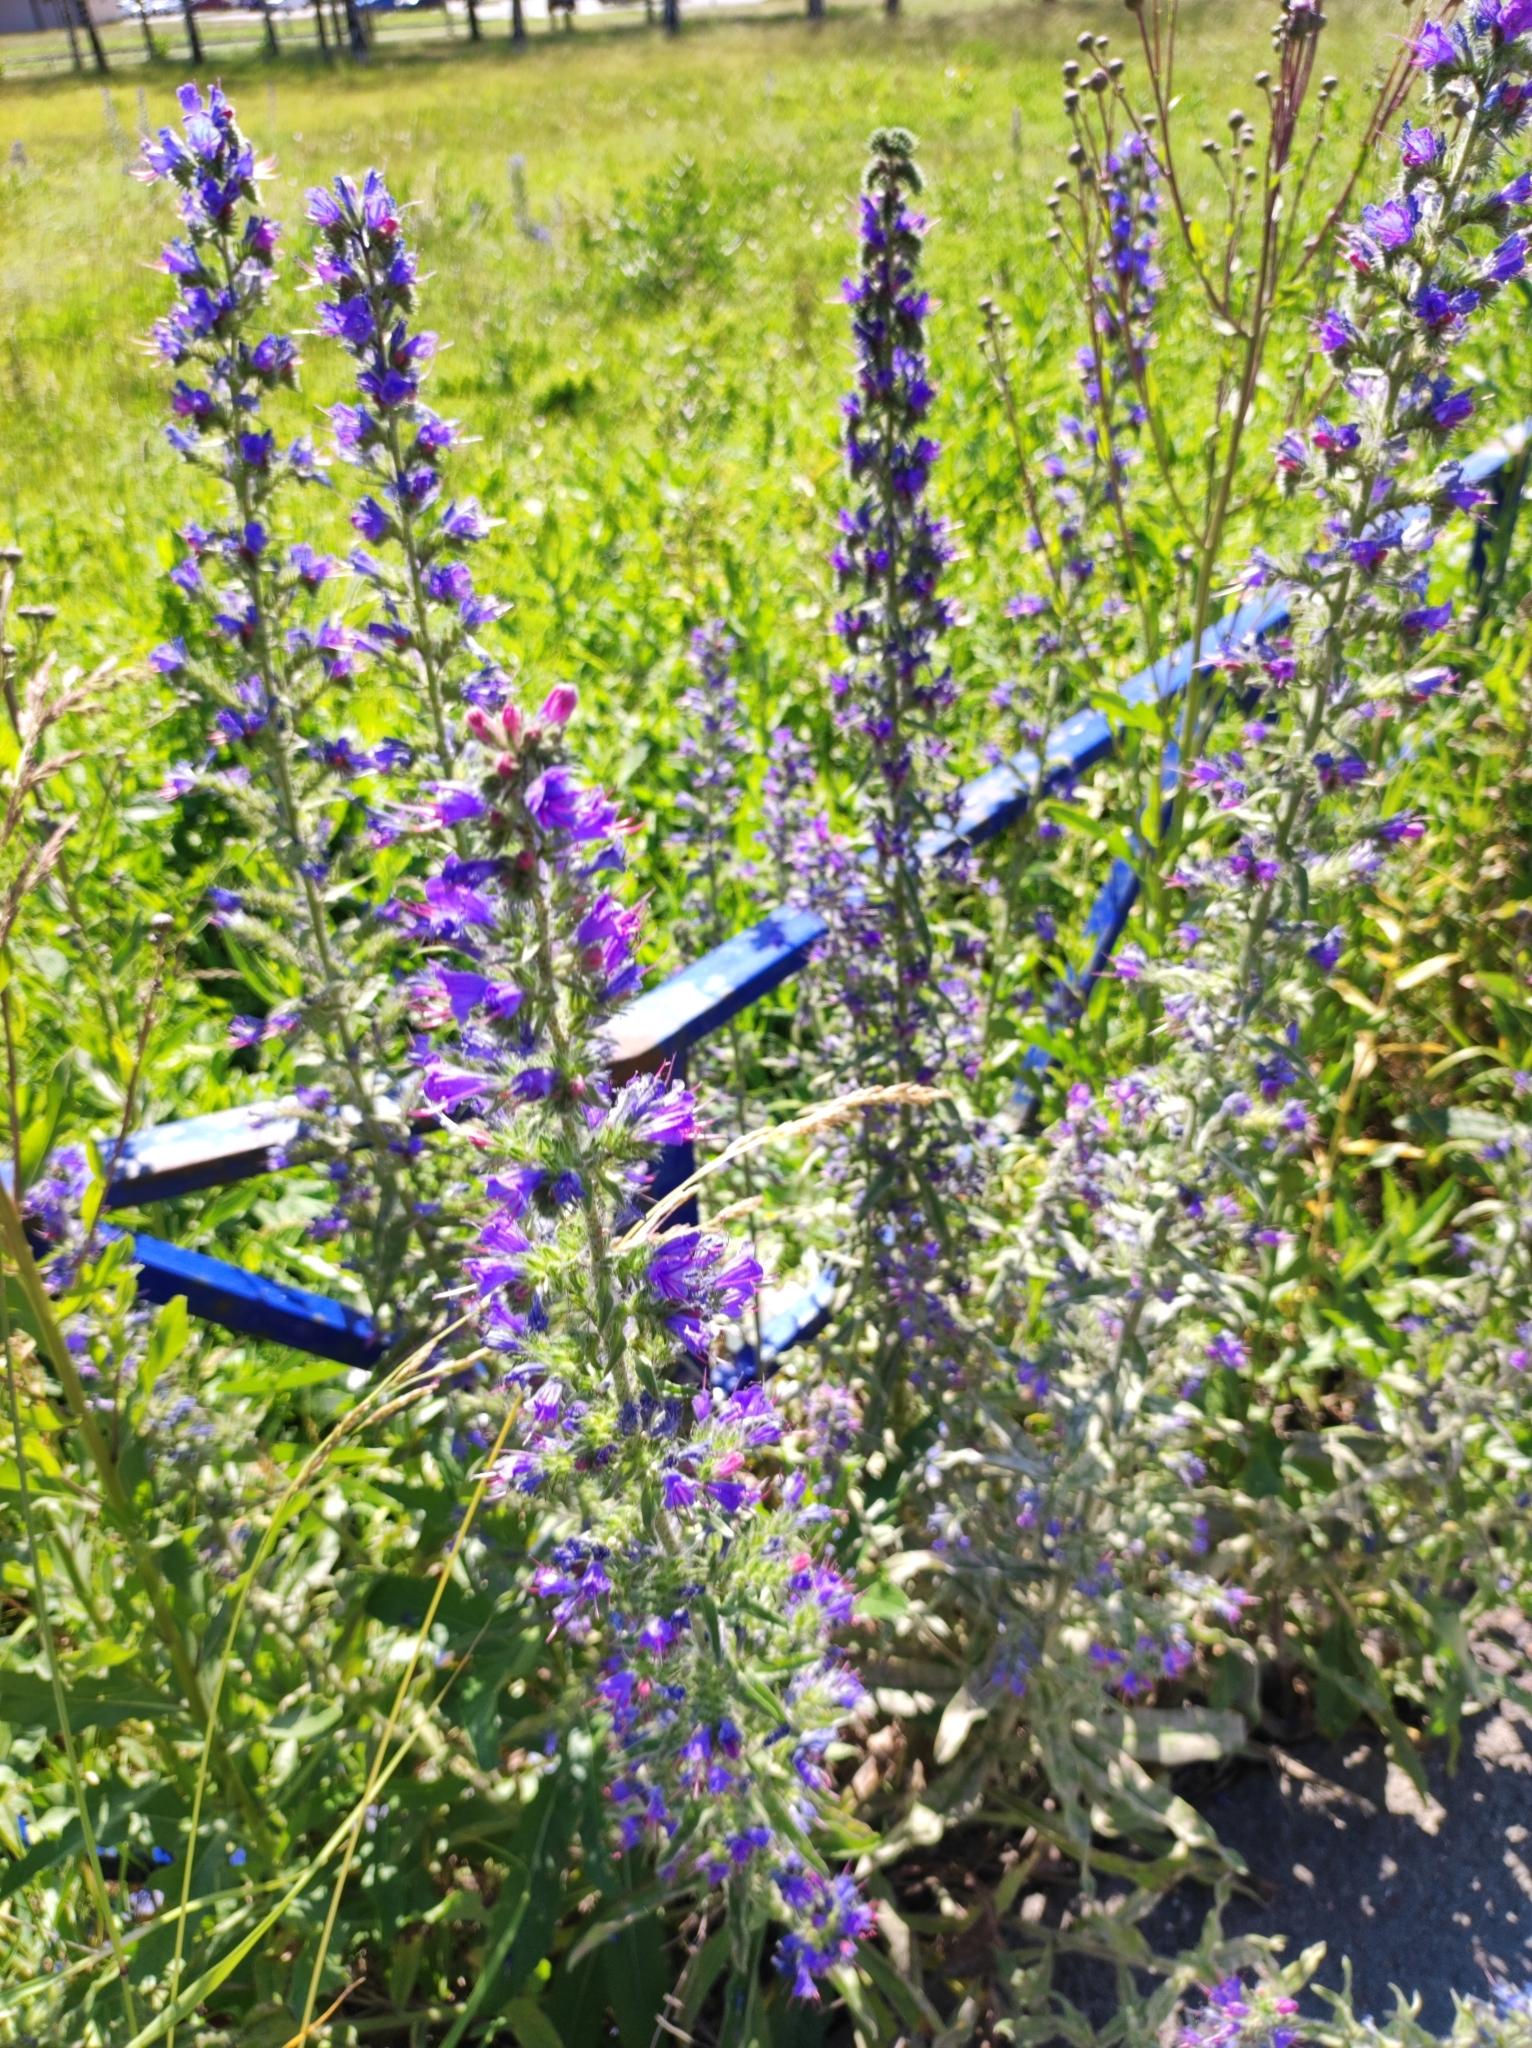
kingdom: Plantae
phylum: Tracheophyta
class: Magnoliopsida
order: Boraginales
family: Boraginaceae
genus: Echium
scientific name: Echium vulgare
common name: Common viper's bugloss
